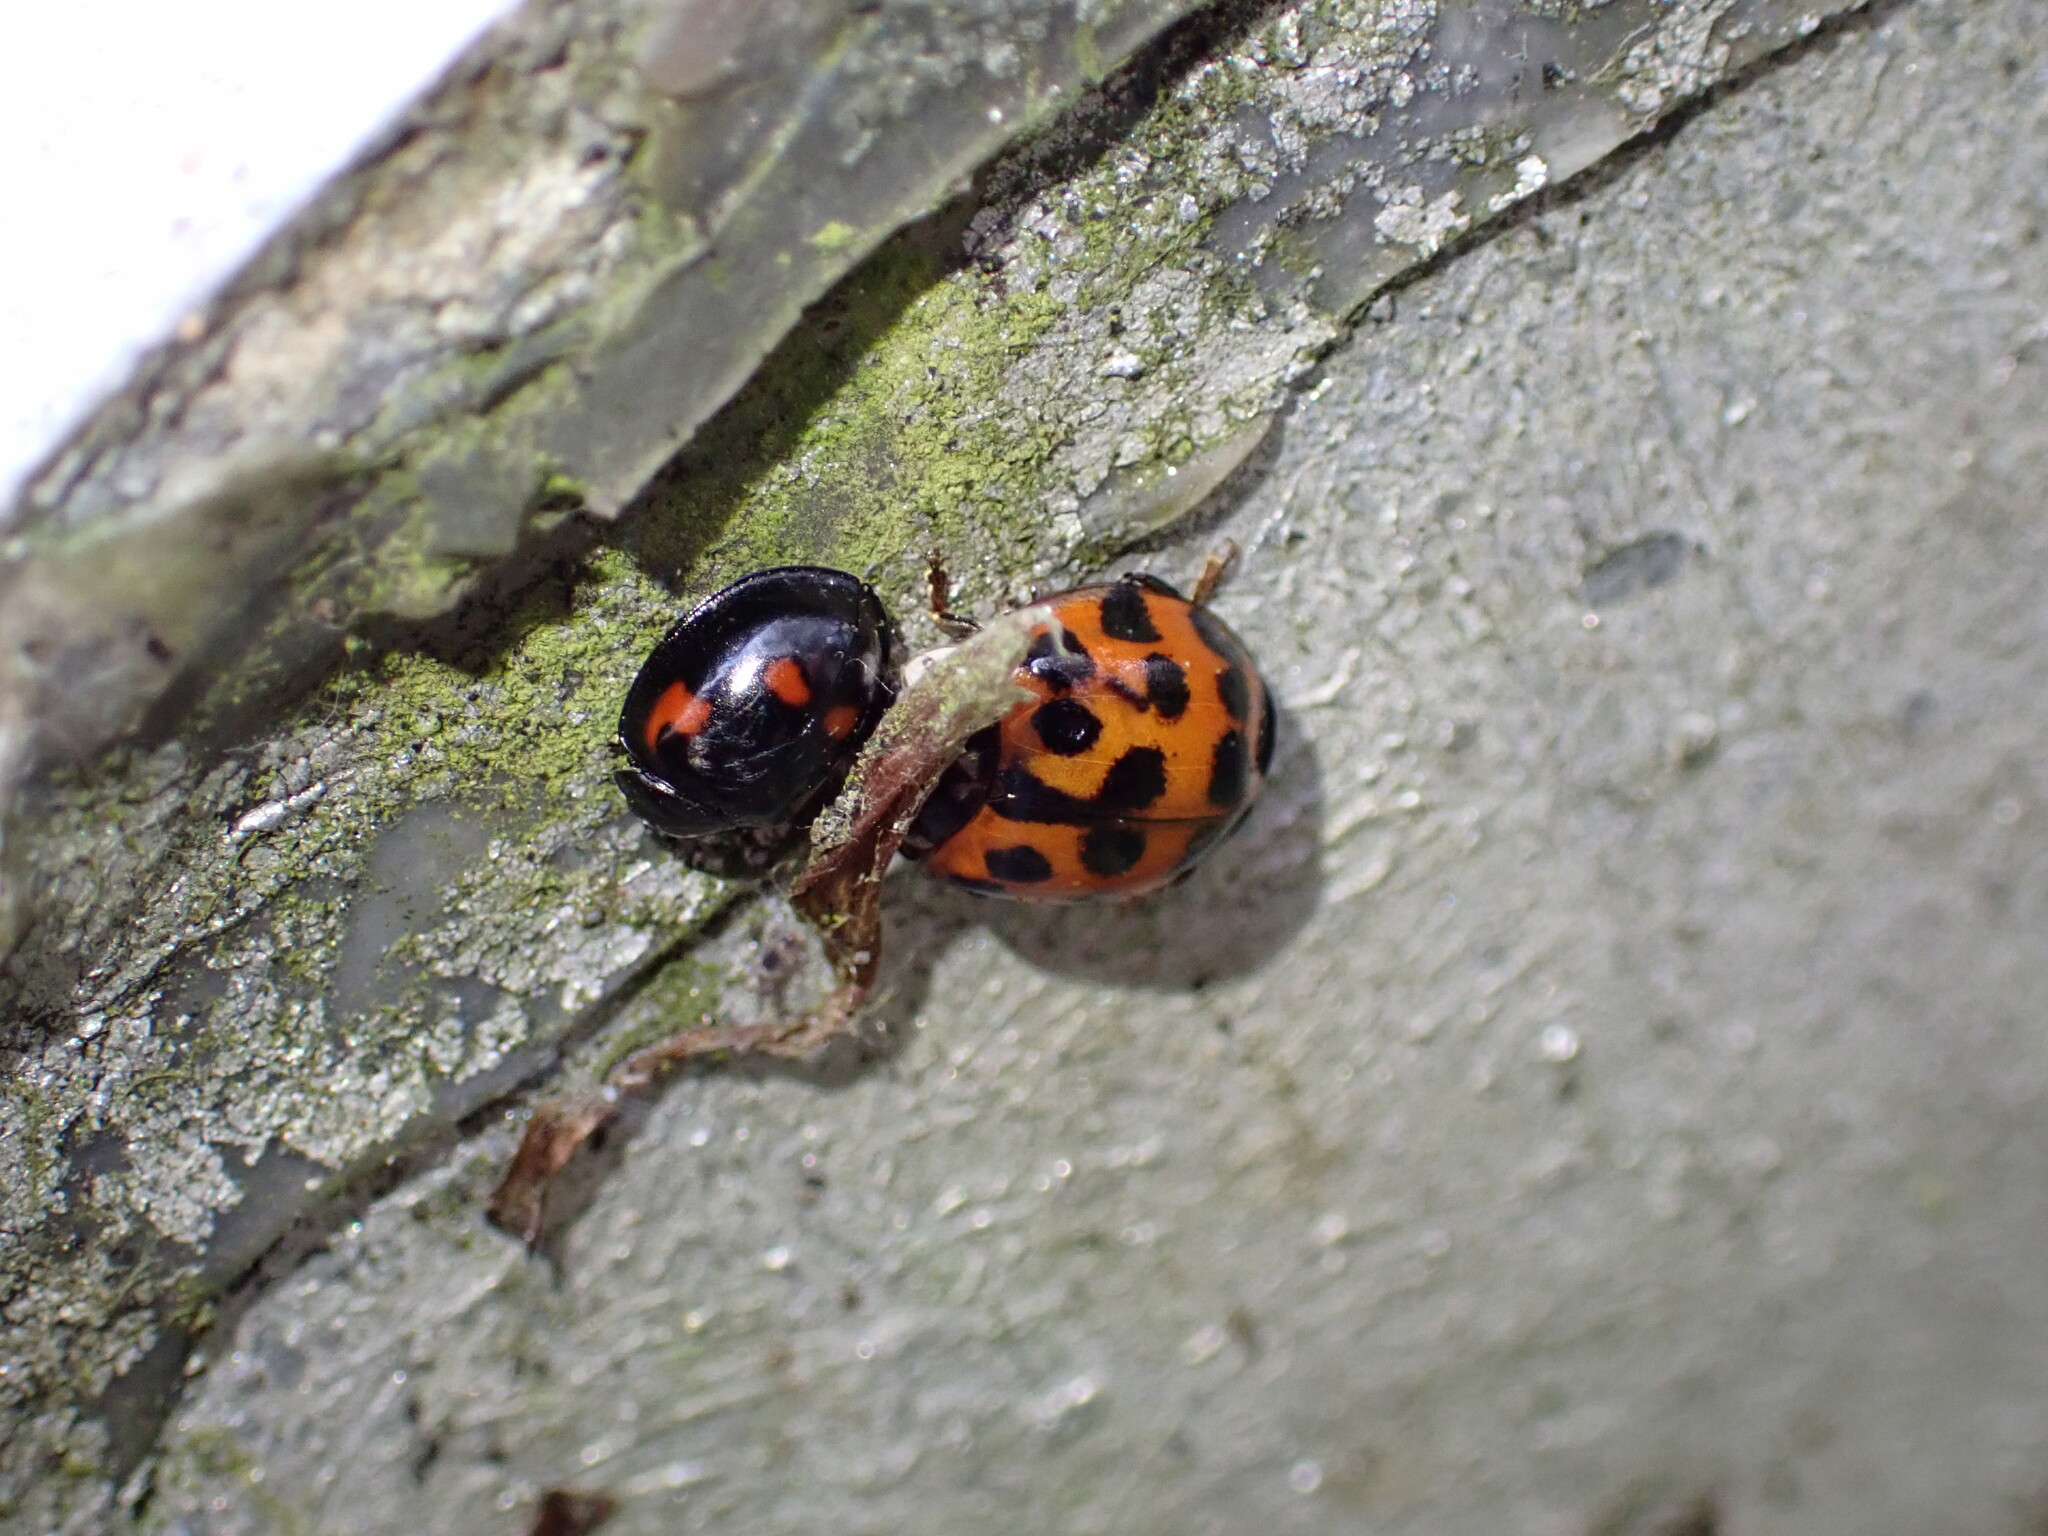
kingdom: Animalia
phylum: Arthropoda
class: Insecta
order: Coleoptera
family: Coccinellidae
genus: Harmonia
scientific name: Harmonia axyridis
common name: Harlequin ladybird
